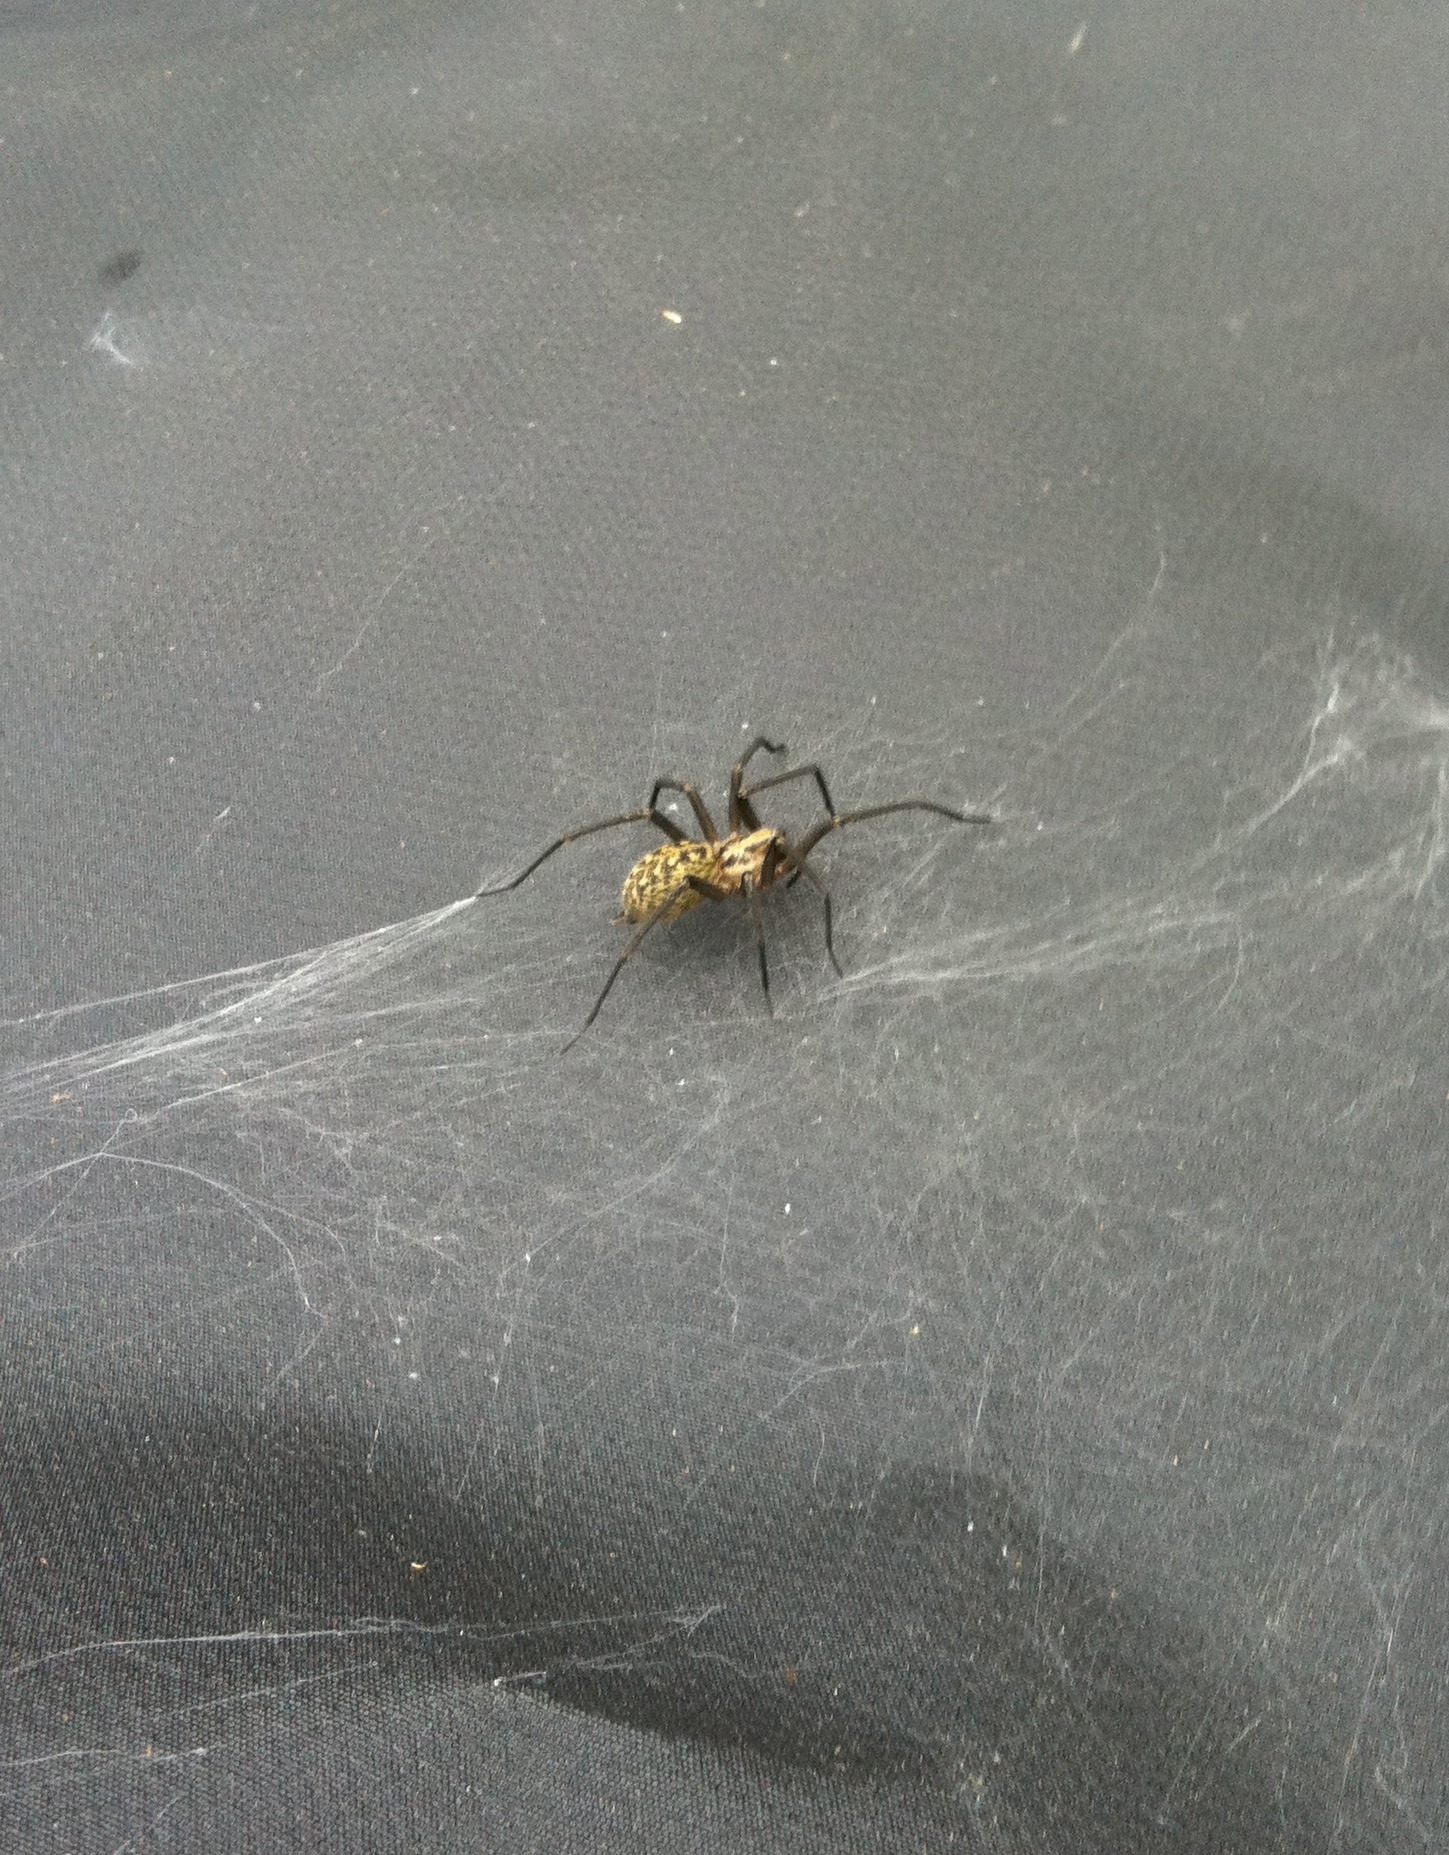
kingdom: Animalia
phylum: Arthropoda
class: Arachnida
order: Araneae
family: Agelenidae
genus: Eratigena
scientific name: Eratigena duellica
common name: Giant house spider
